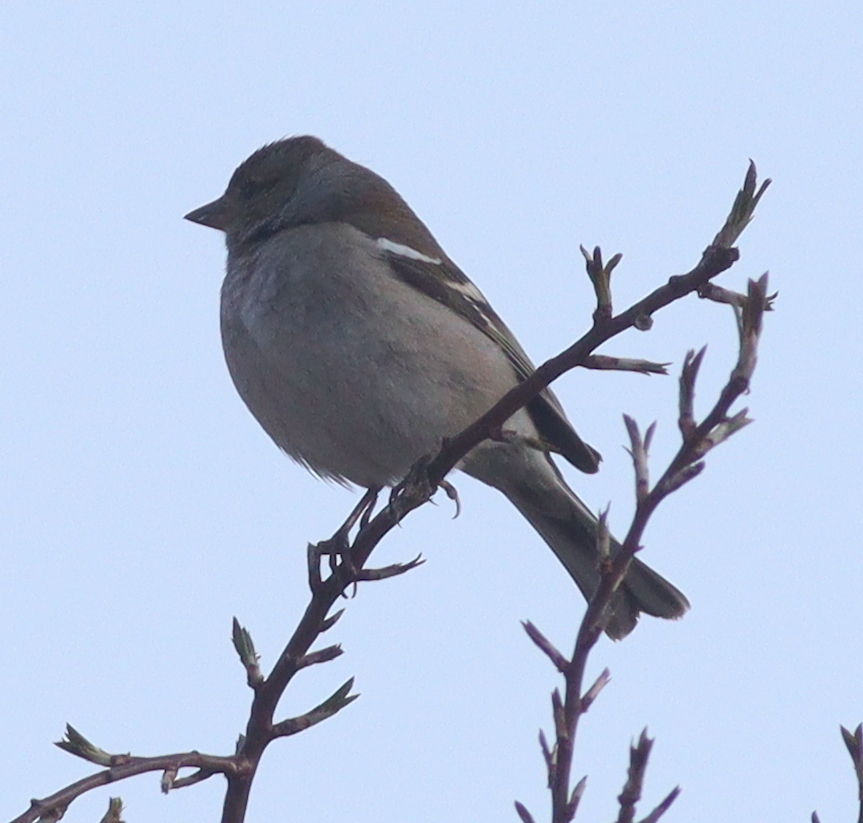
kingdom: Animalia
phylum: Chordata
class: Aves
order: Passeriformes
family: Fringillidae
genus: Fringilla
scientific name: Fringilla coelebs
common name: Common chaffinch
